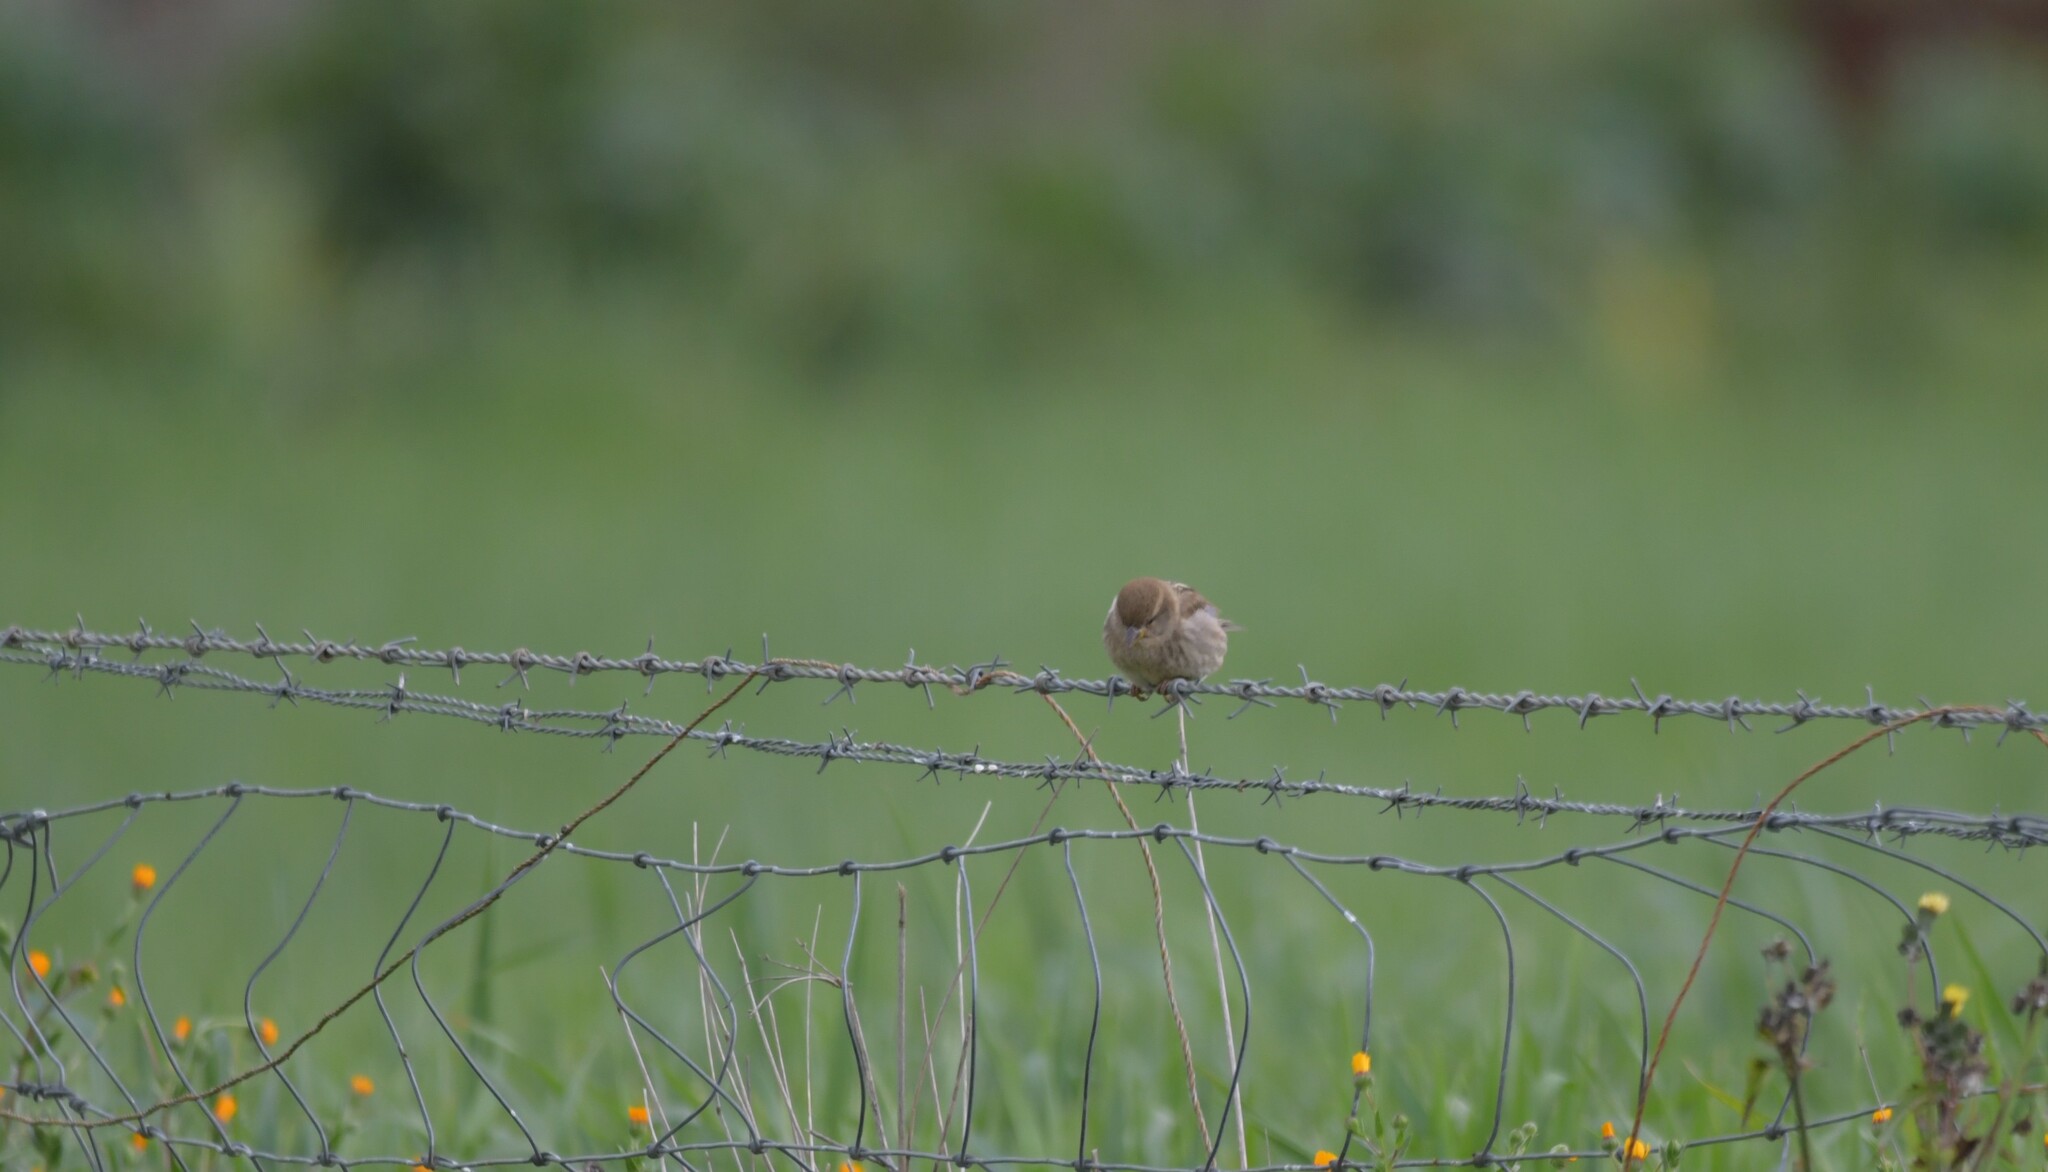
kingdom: Animalia
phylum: Chordata
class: Aves
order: Passeriformes
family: Passeridae
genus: Passer
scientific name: Passer domesticus
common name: House sparrow
